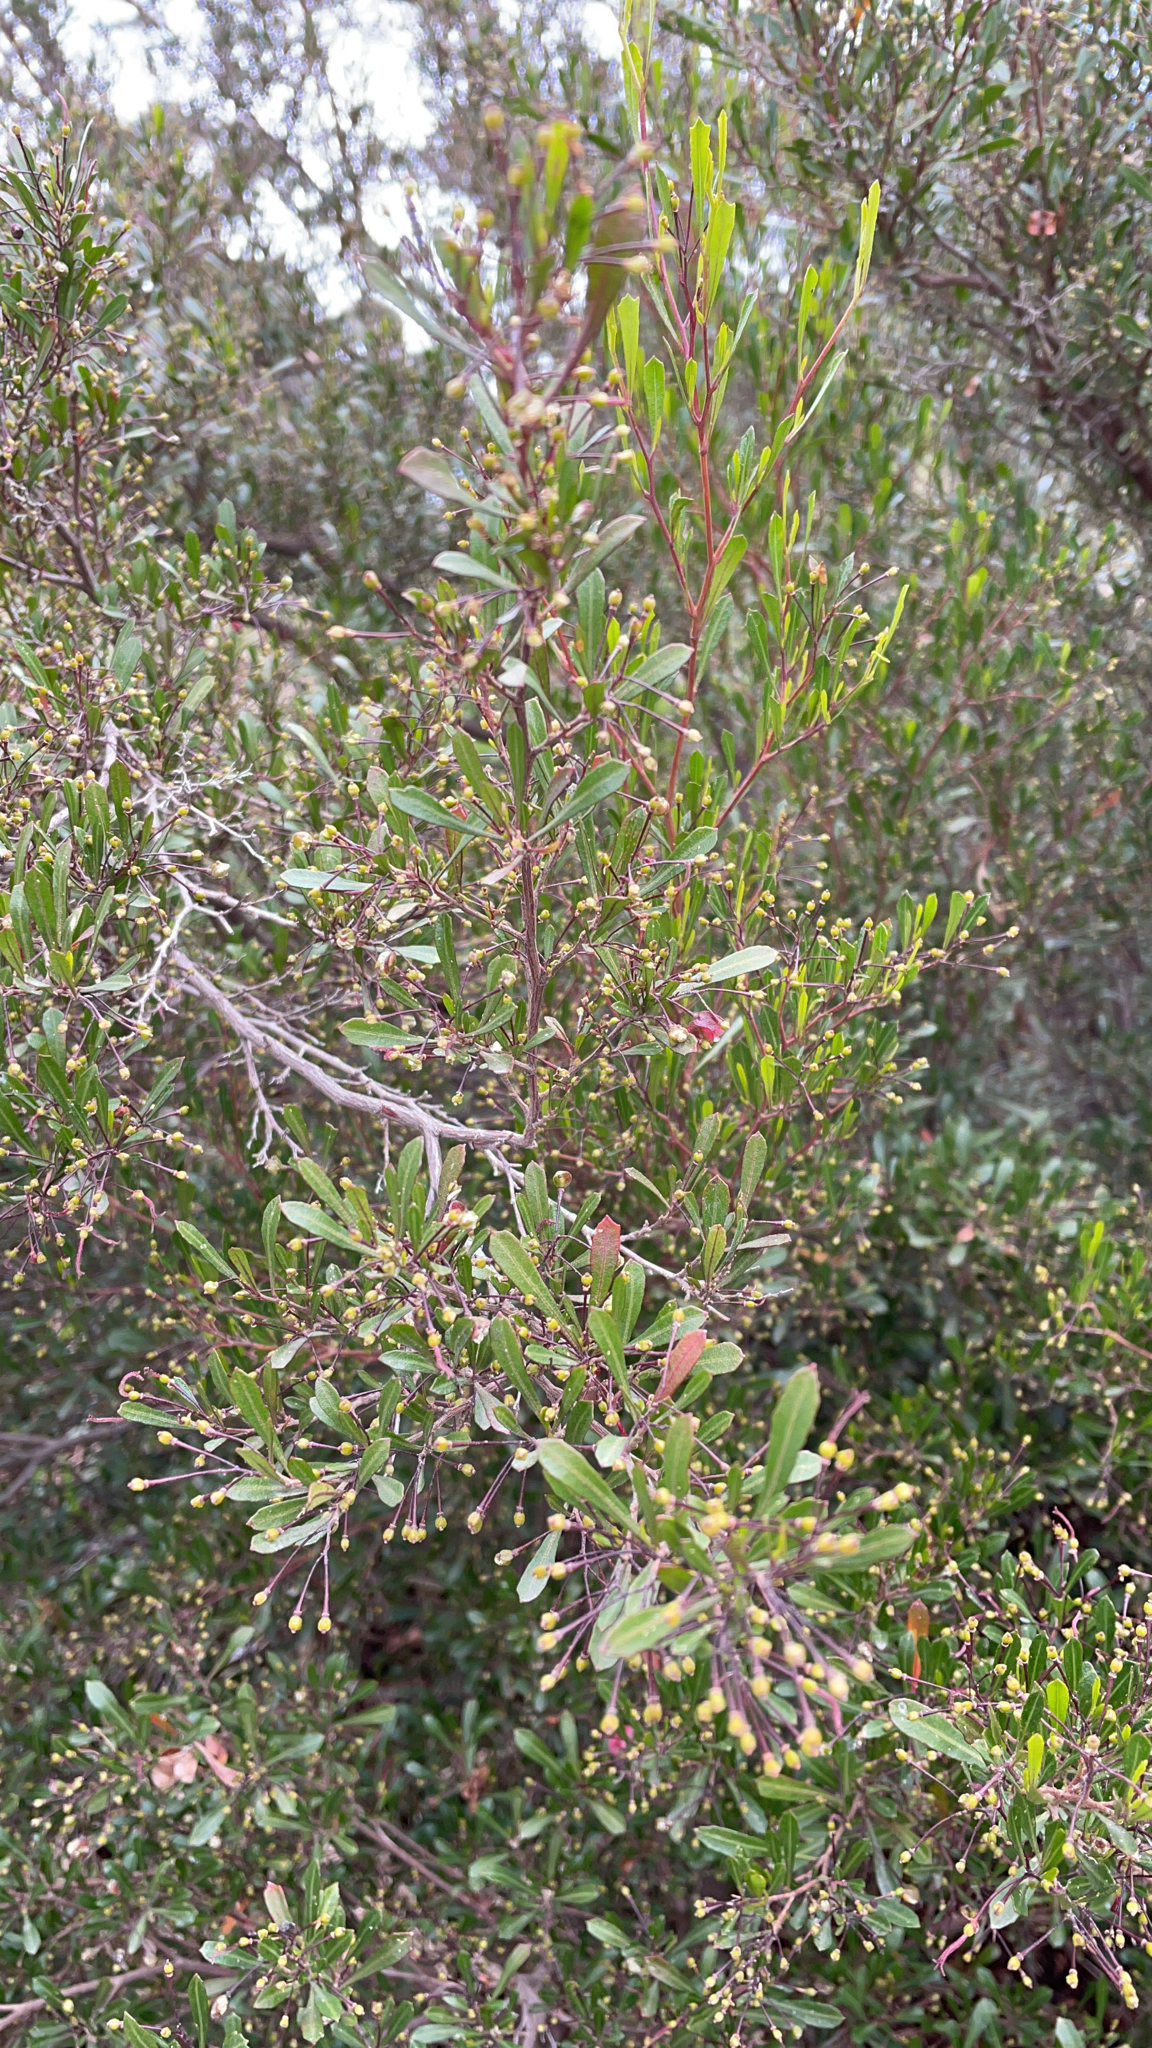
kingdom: Plantae
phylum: Tracheophyta
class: Magnoliopsida
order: Sapindales
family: Sapindaceae
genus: Dodonaea
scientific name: Dodonaea viscosa
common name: Hopbush
